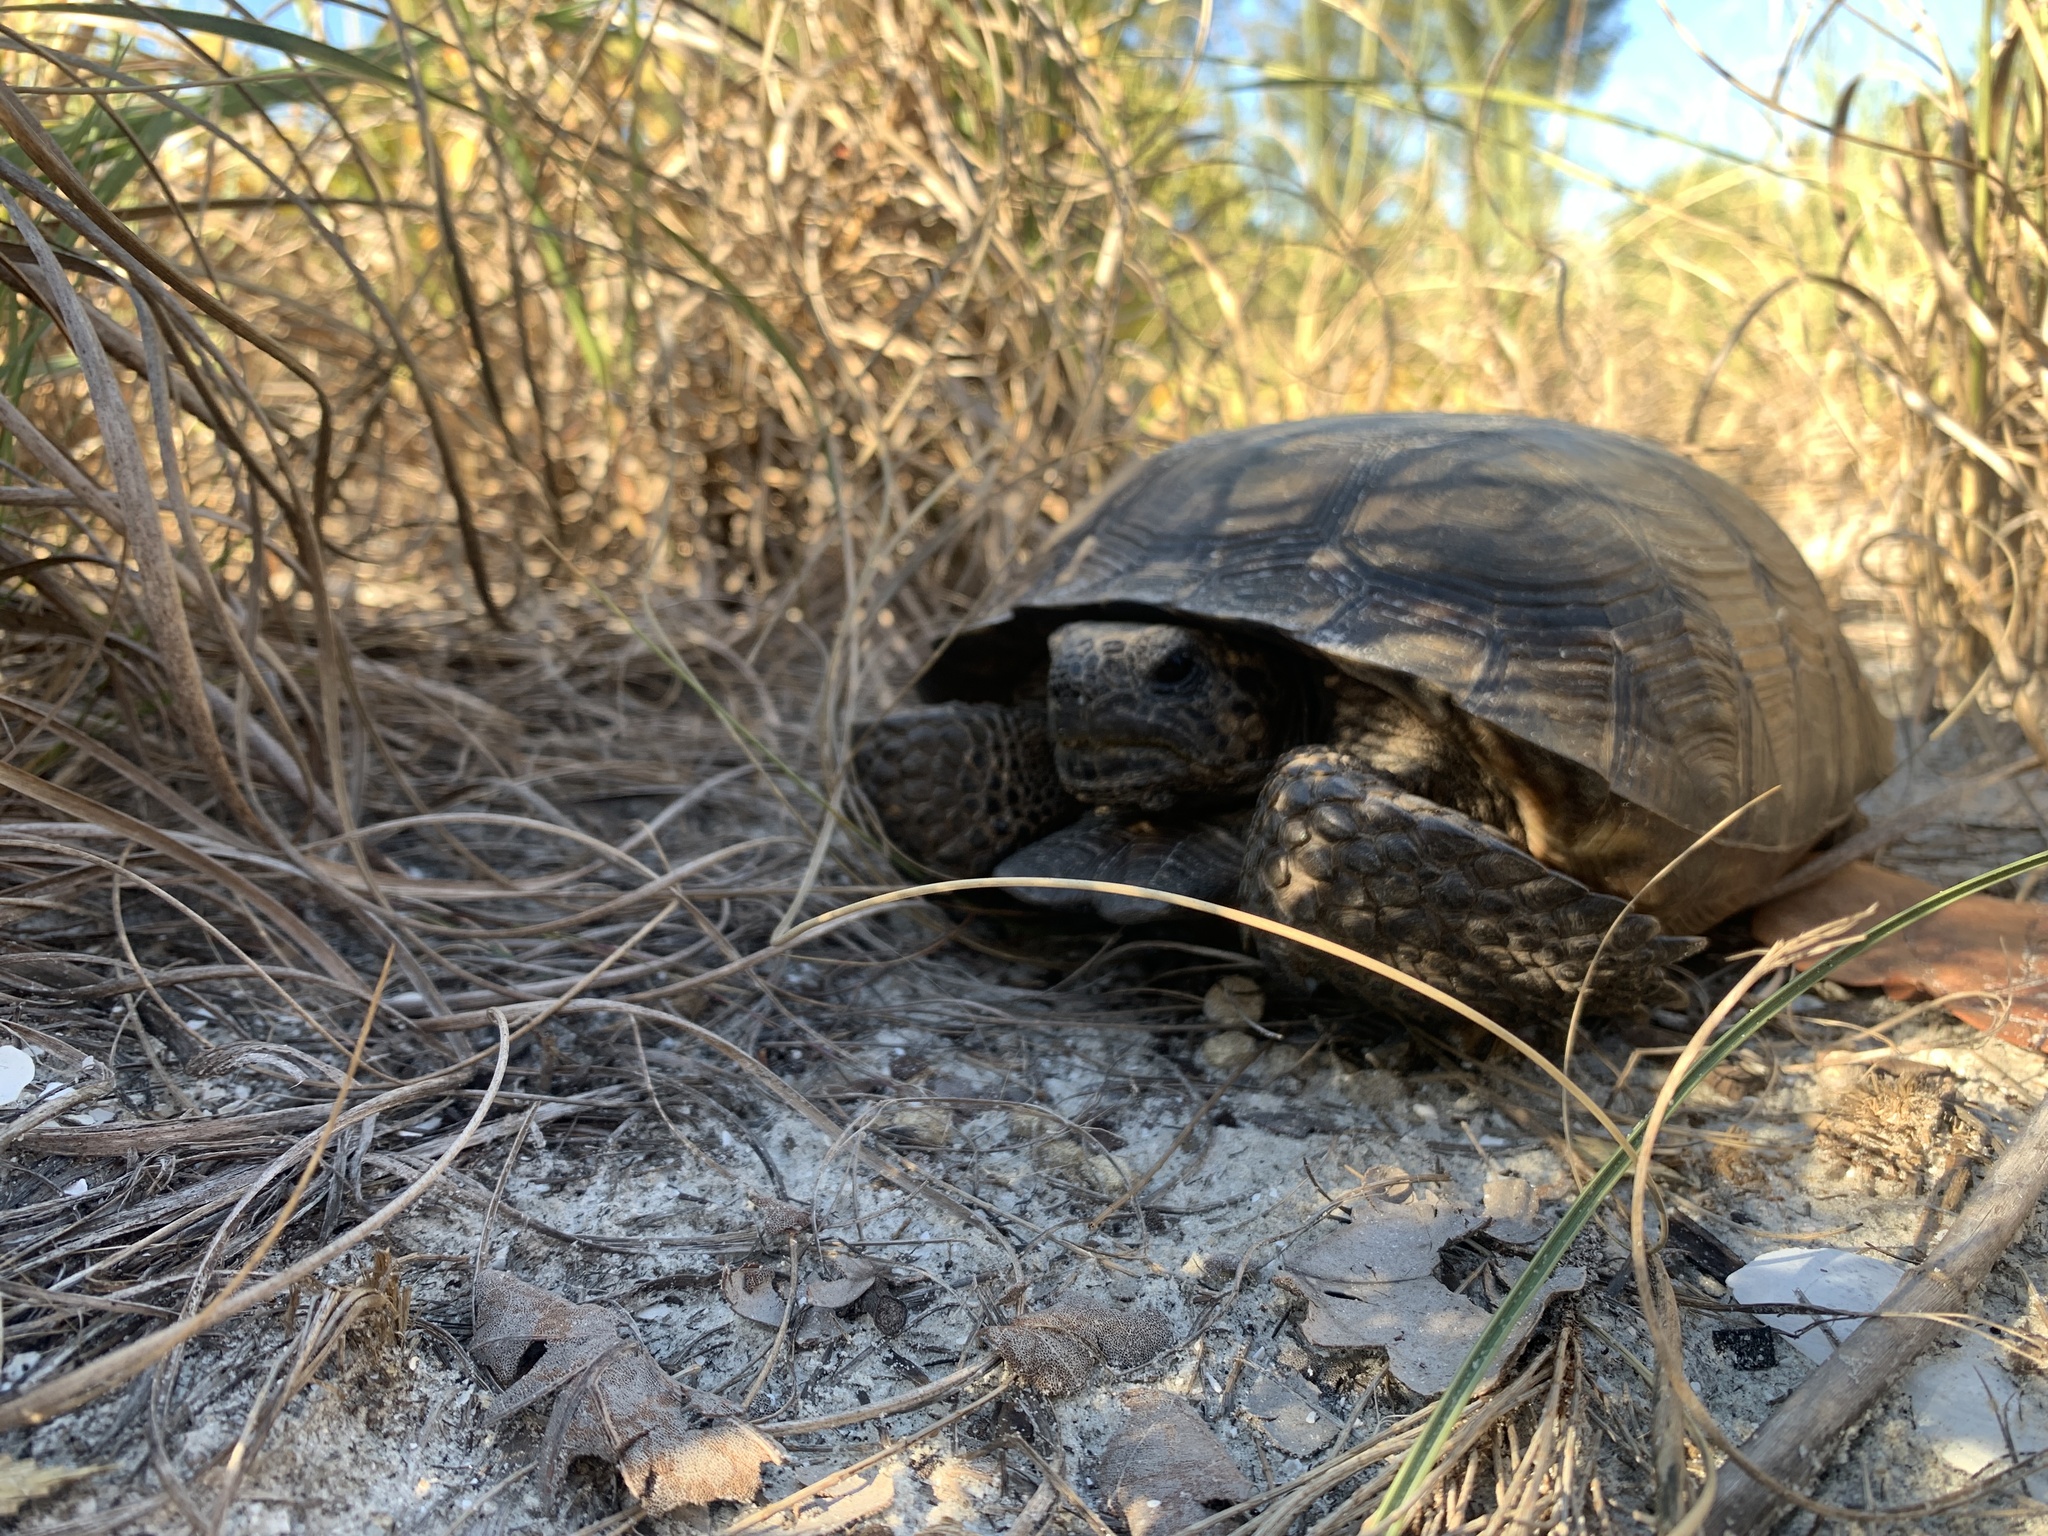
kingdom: Animalia
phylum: Chordata
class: Testudines
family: Testudinidae
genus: Gopherus
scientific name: Gopherus polyphemus
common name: Florida gopher tortoise
